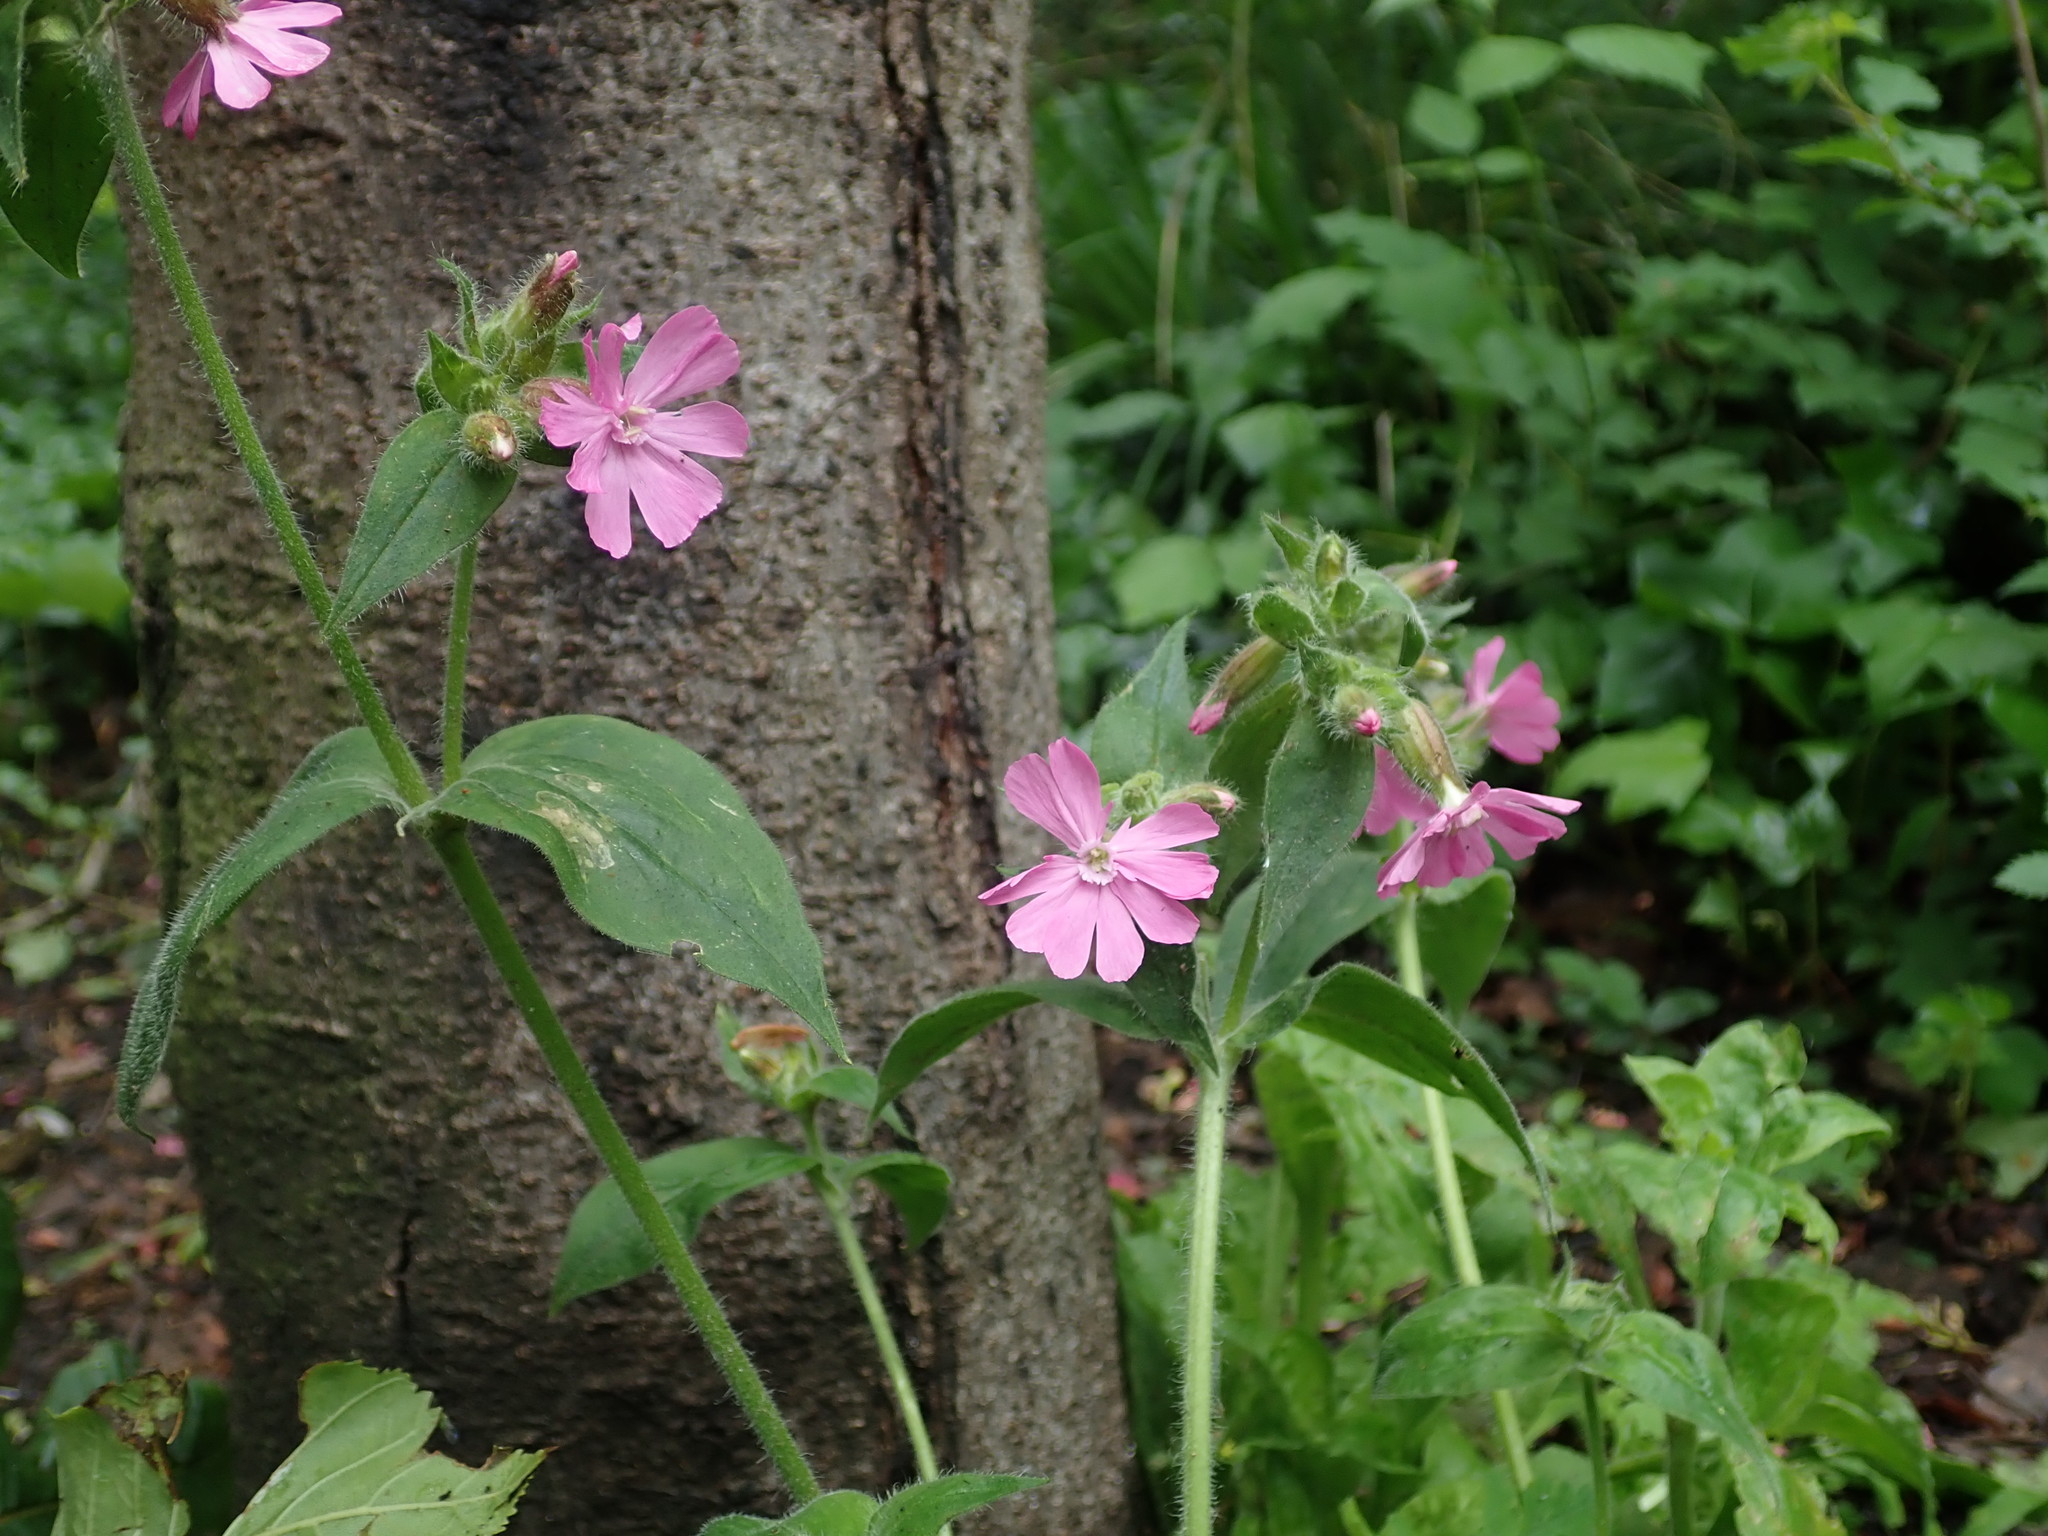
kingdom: Plantae
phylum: Tracheophyta
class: Magnoliopsida
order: Caryophyllales
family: Caryophyllaceae
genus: Silene
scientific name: Silene dioica
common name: Red campion
